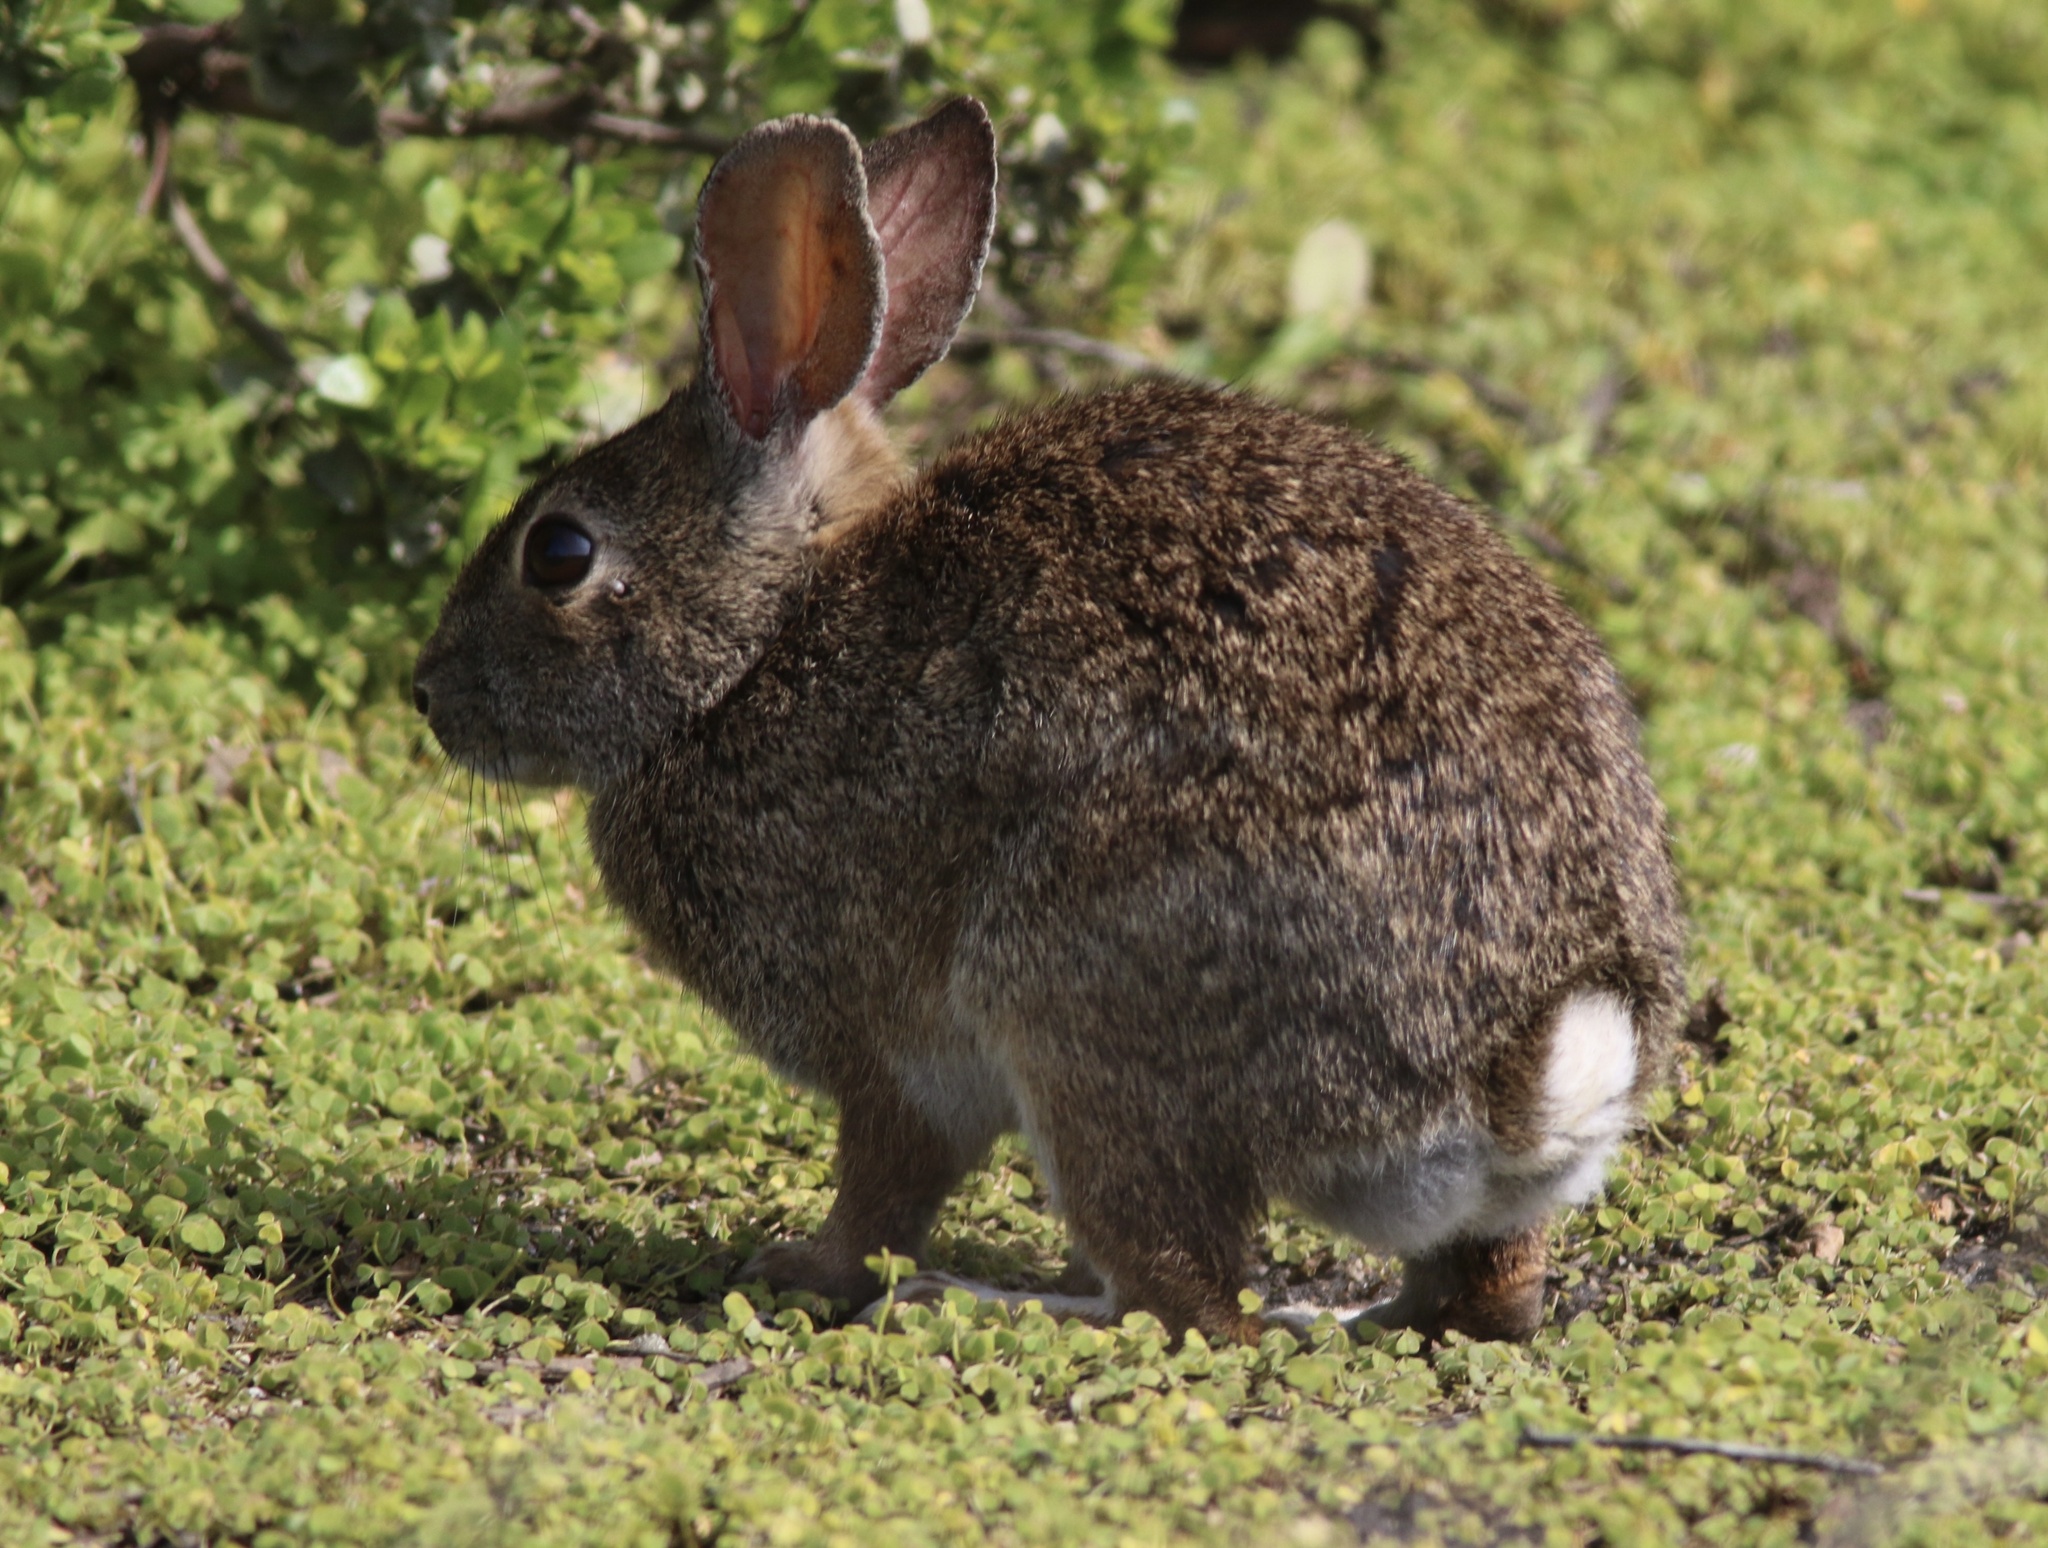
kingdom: Animalia
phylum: Chordata
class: Mammalia
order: Lagomorpha
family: Leporidae
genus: Sylvilagus
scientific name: Sylvilagus bachmani
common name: Brush rabbit
